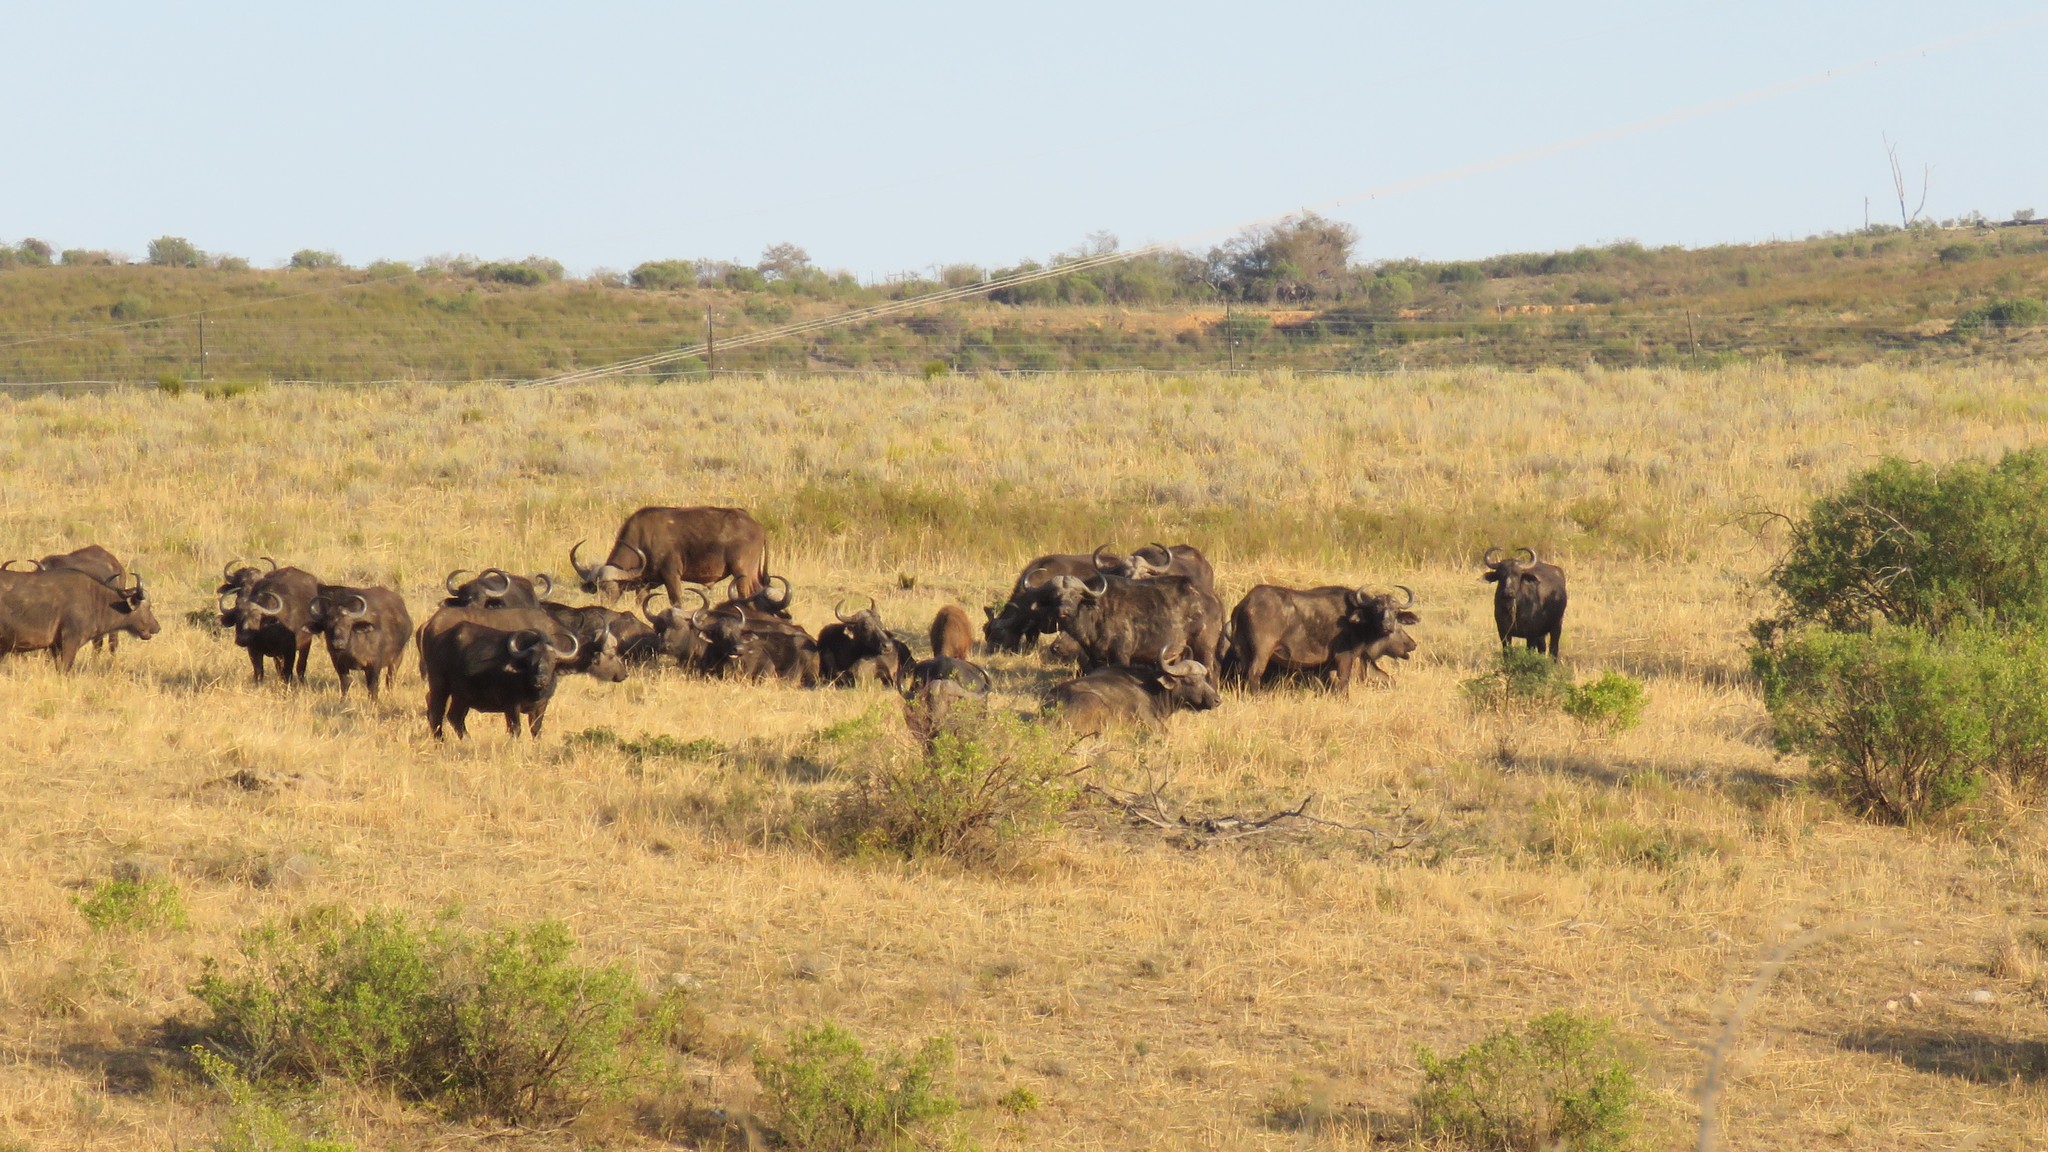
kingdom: Animalia
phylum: Chordata
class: Mammalia
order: Artiodactyla
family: Bovidae
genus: Syncerus
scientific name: Syncerus caffer
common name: African buffalo
